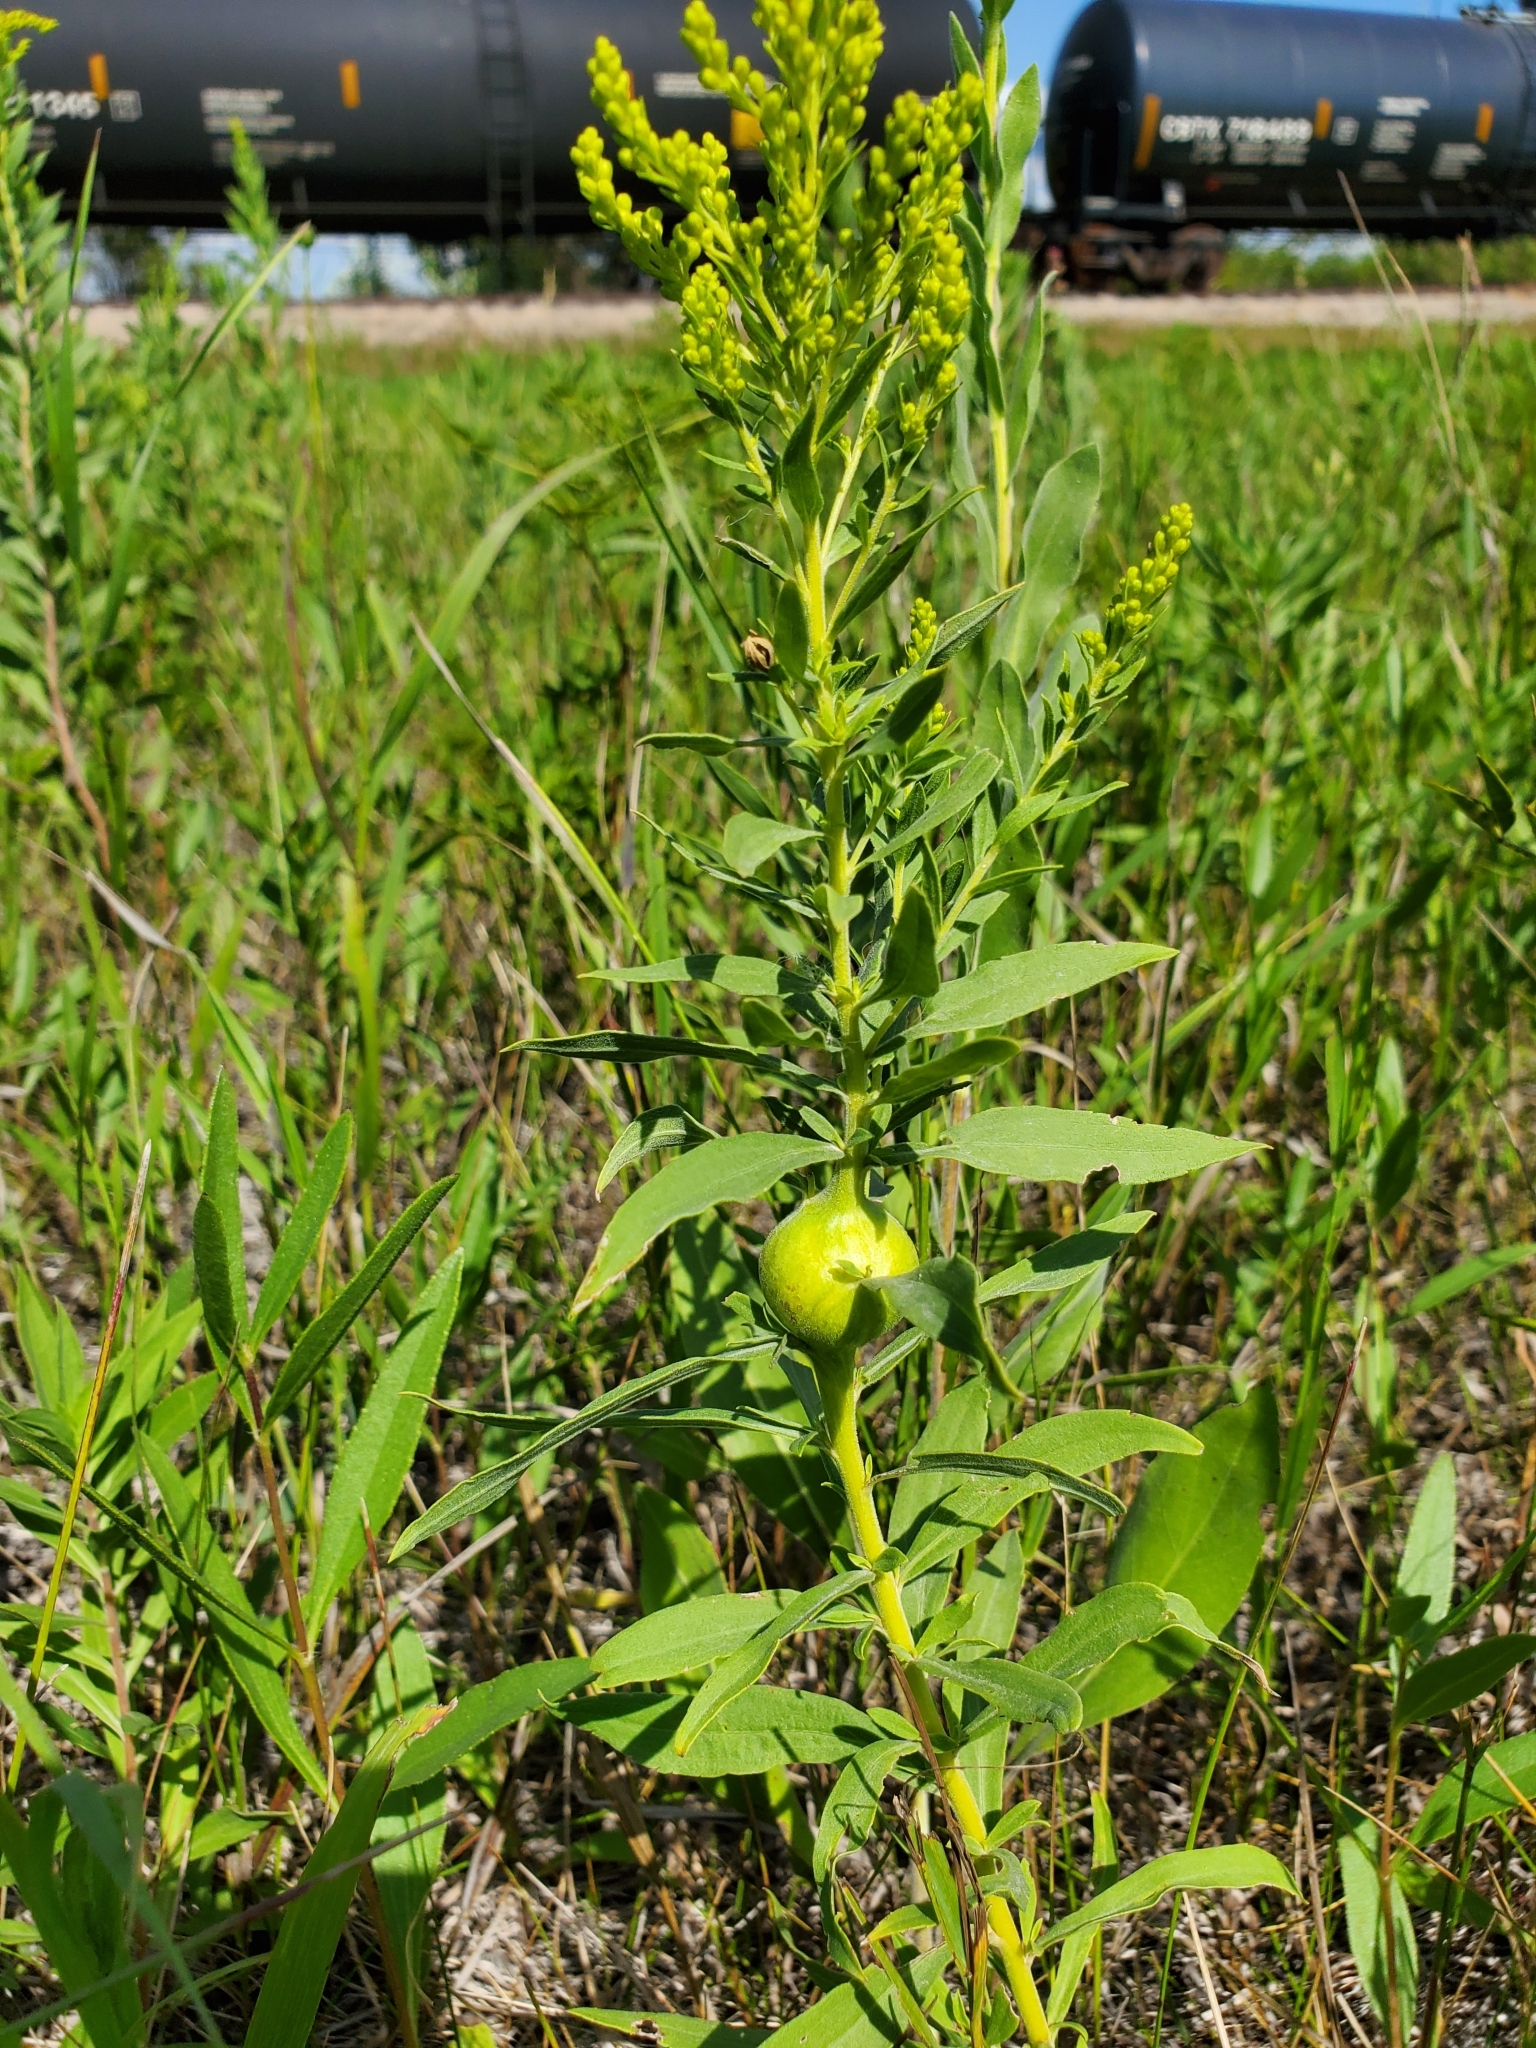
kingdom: Animalia
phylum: Arthropoda
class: Insecta
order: Diptera
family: Tephritidae
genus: Eurosta
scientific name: Eurosta solidaginis
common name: Goldenrod gall fly
